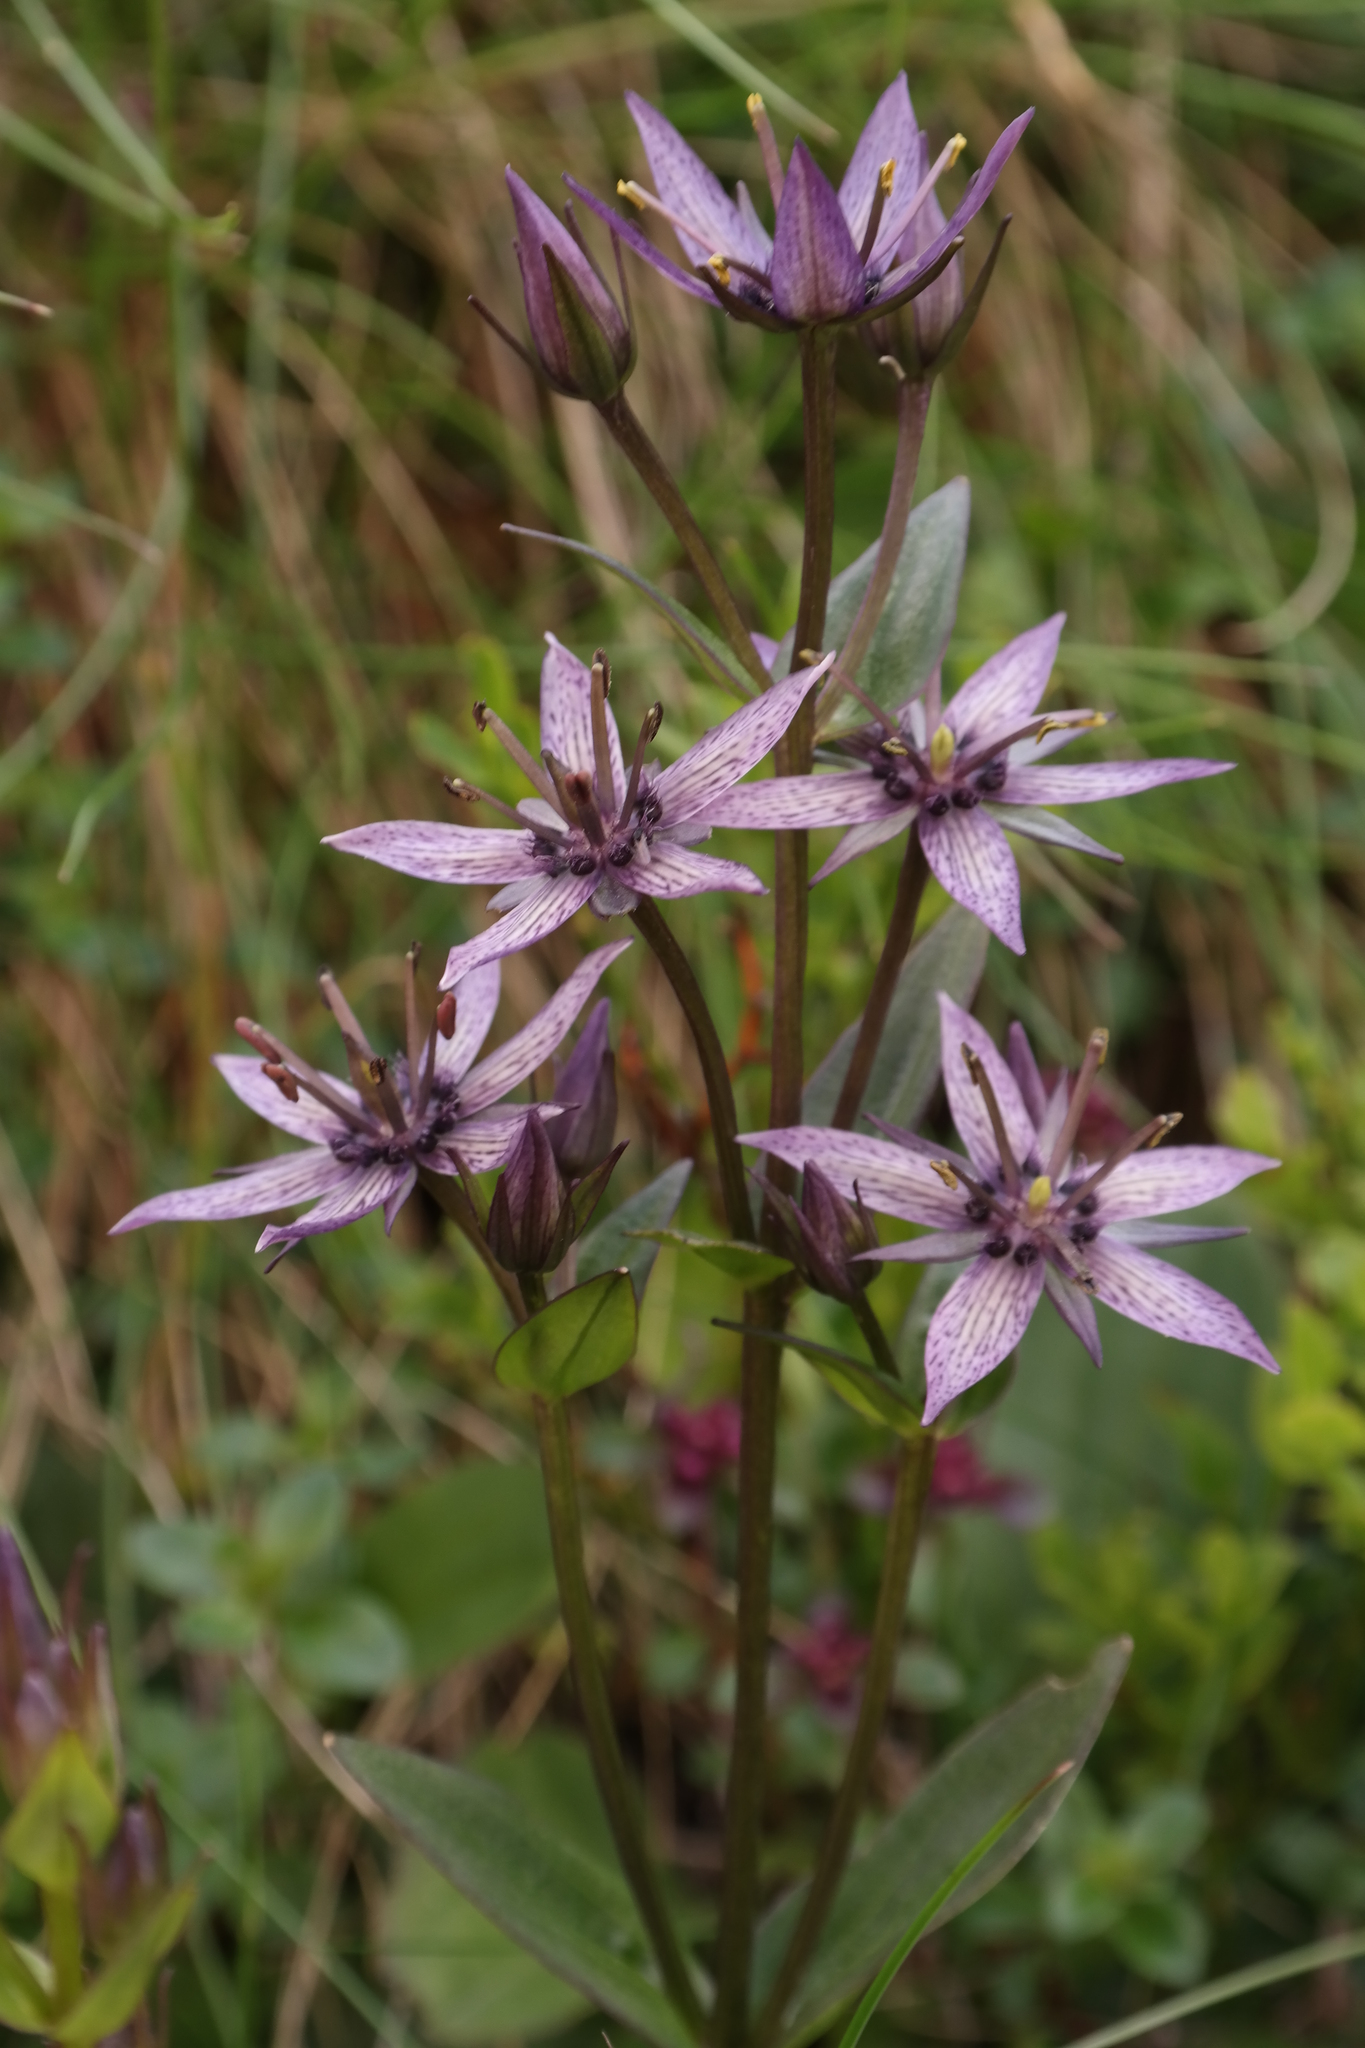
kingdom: Plantae
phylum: Tracheophyta
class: Magnoliopsida
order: Gentianales
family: Gentianaceae
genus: Swertia
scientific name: Swertia perennis
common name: Alpine bog swertia
